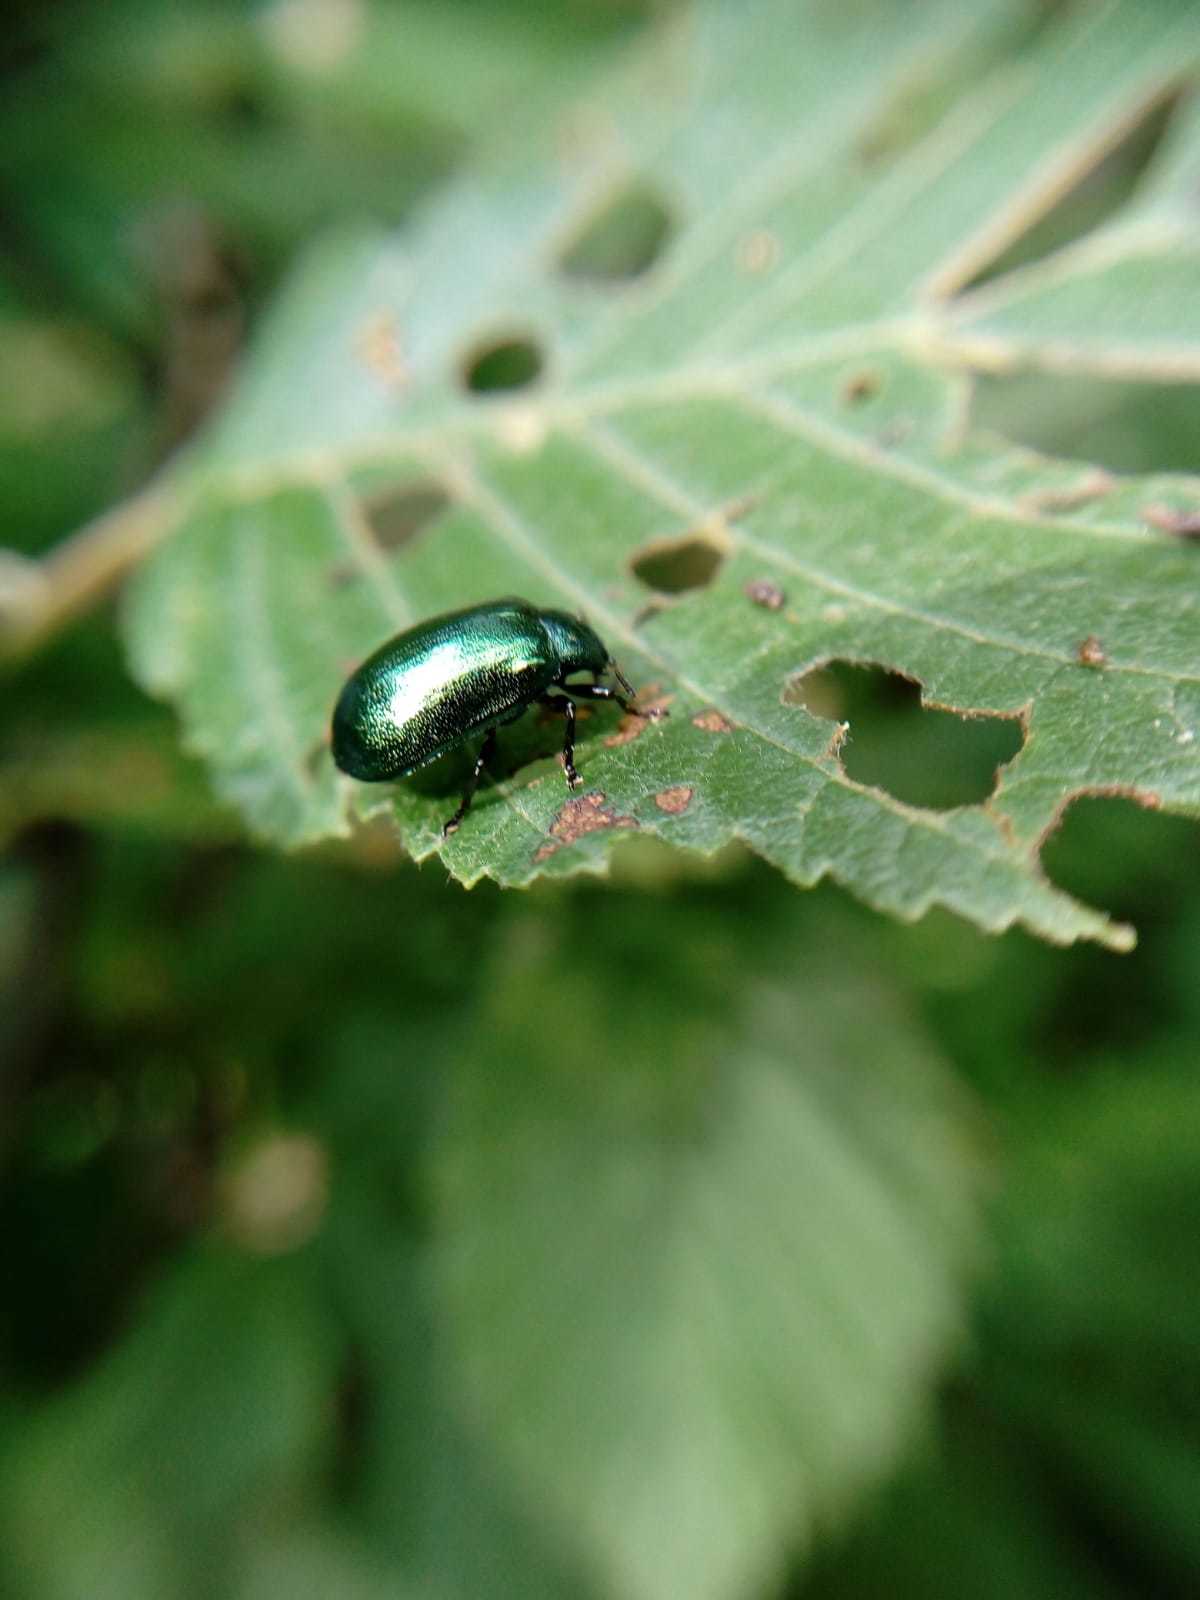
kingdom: Animalia
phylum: Arthropoda
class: Insecta
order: Coleoptera
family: Chrysomelidae
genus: Plagiosterna
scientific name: Plagiosterna aenea
